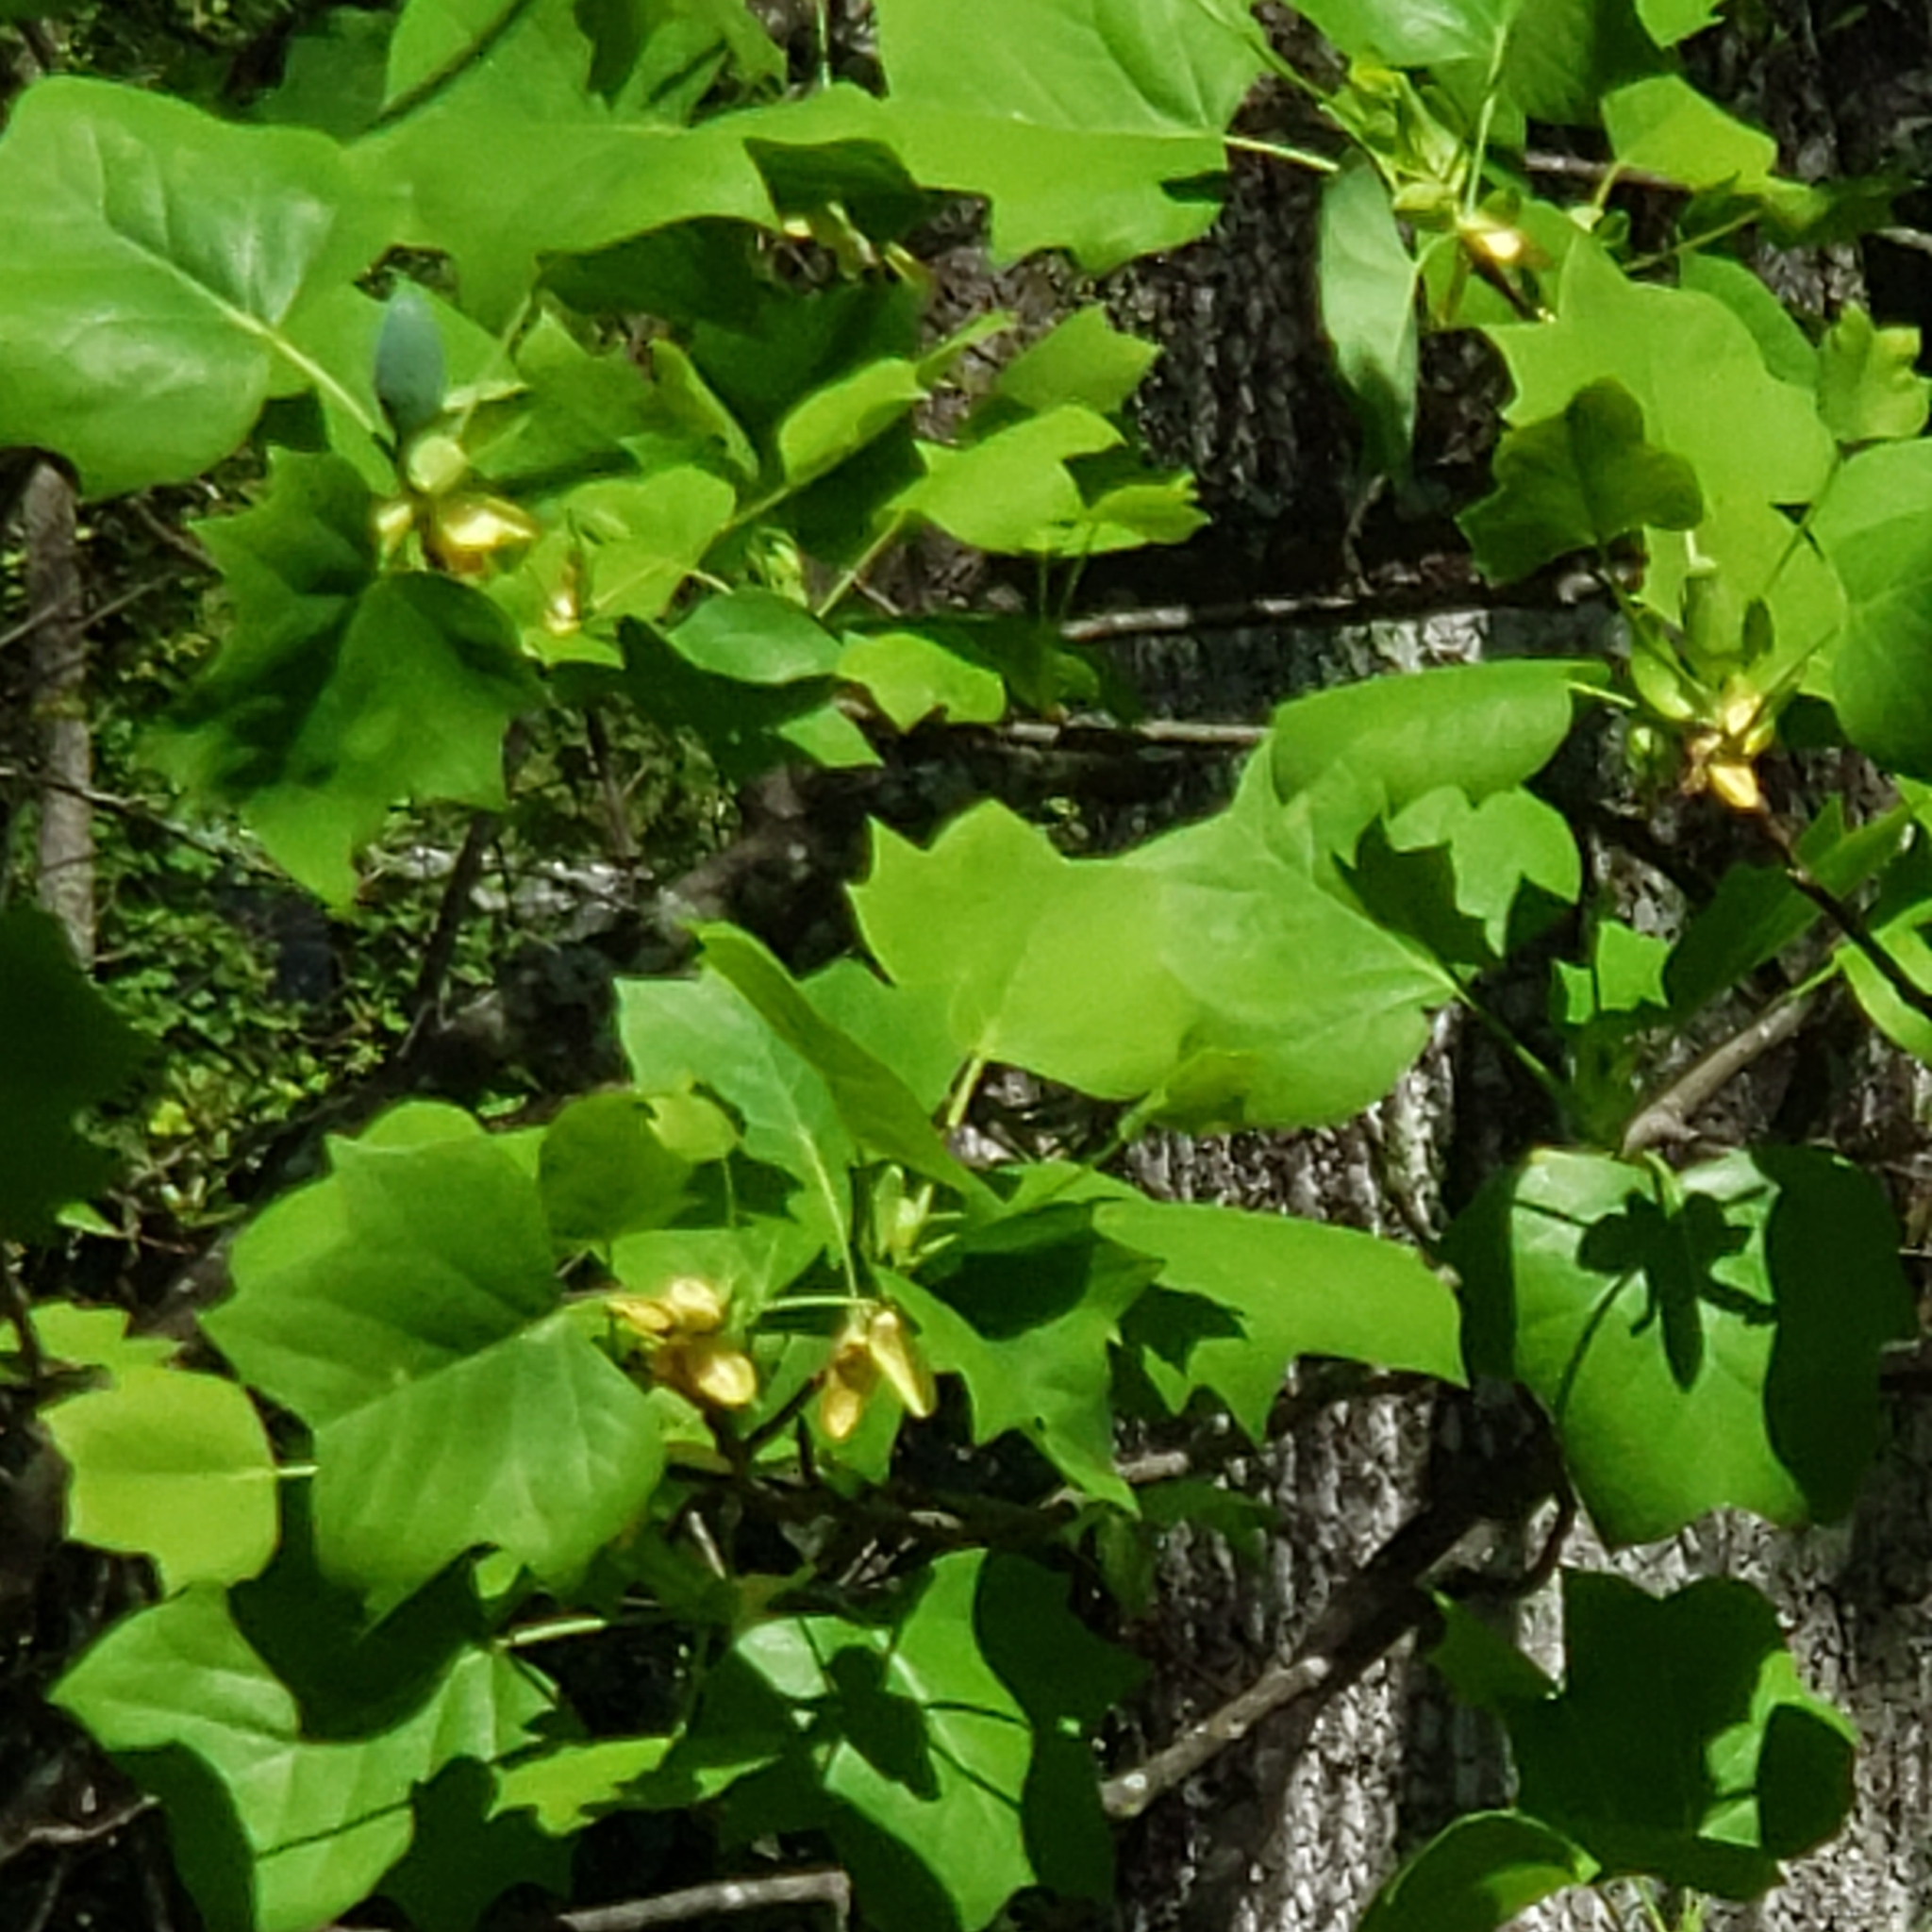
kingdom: Plantae
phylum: Tracheophyta
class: Magnoliopsida
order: Magnoliales
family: Magnoliaceae
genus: Liriodendron
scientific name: Liriodendron tulipifera
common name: Tulip tree
